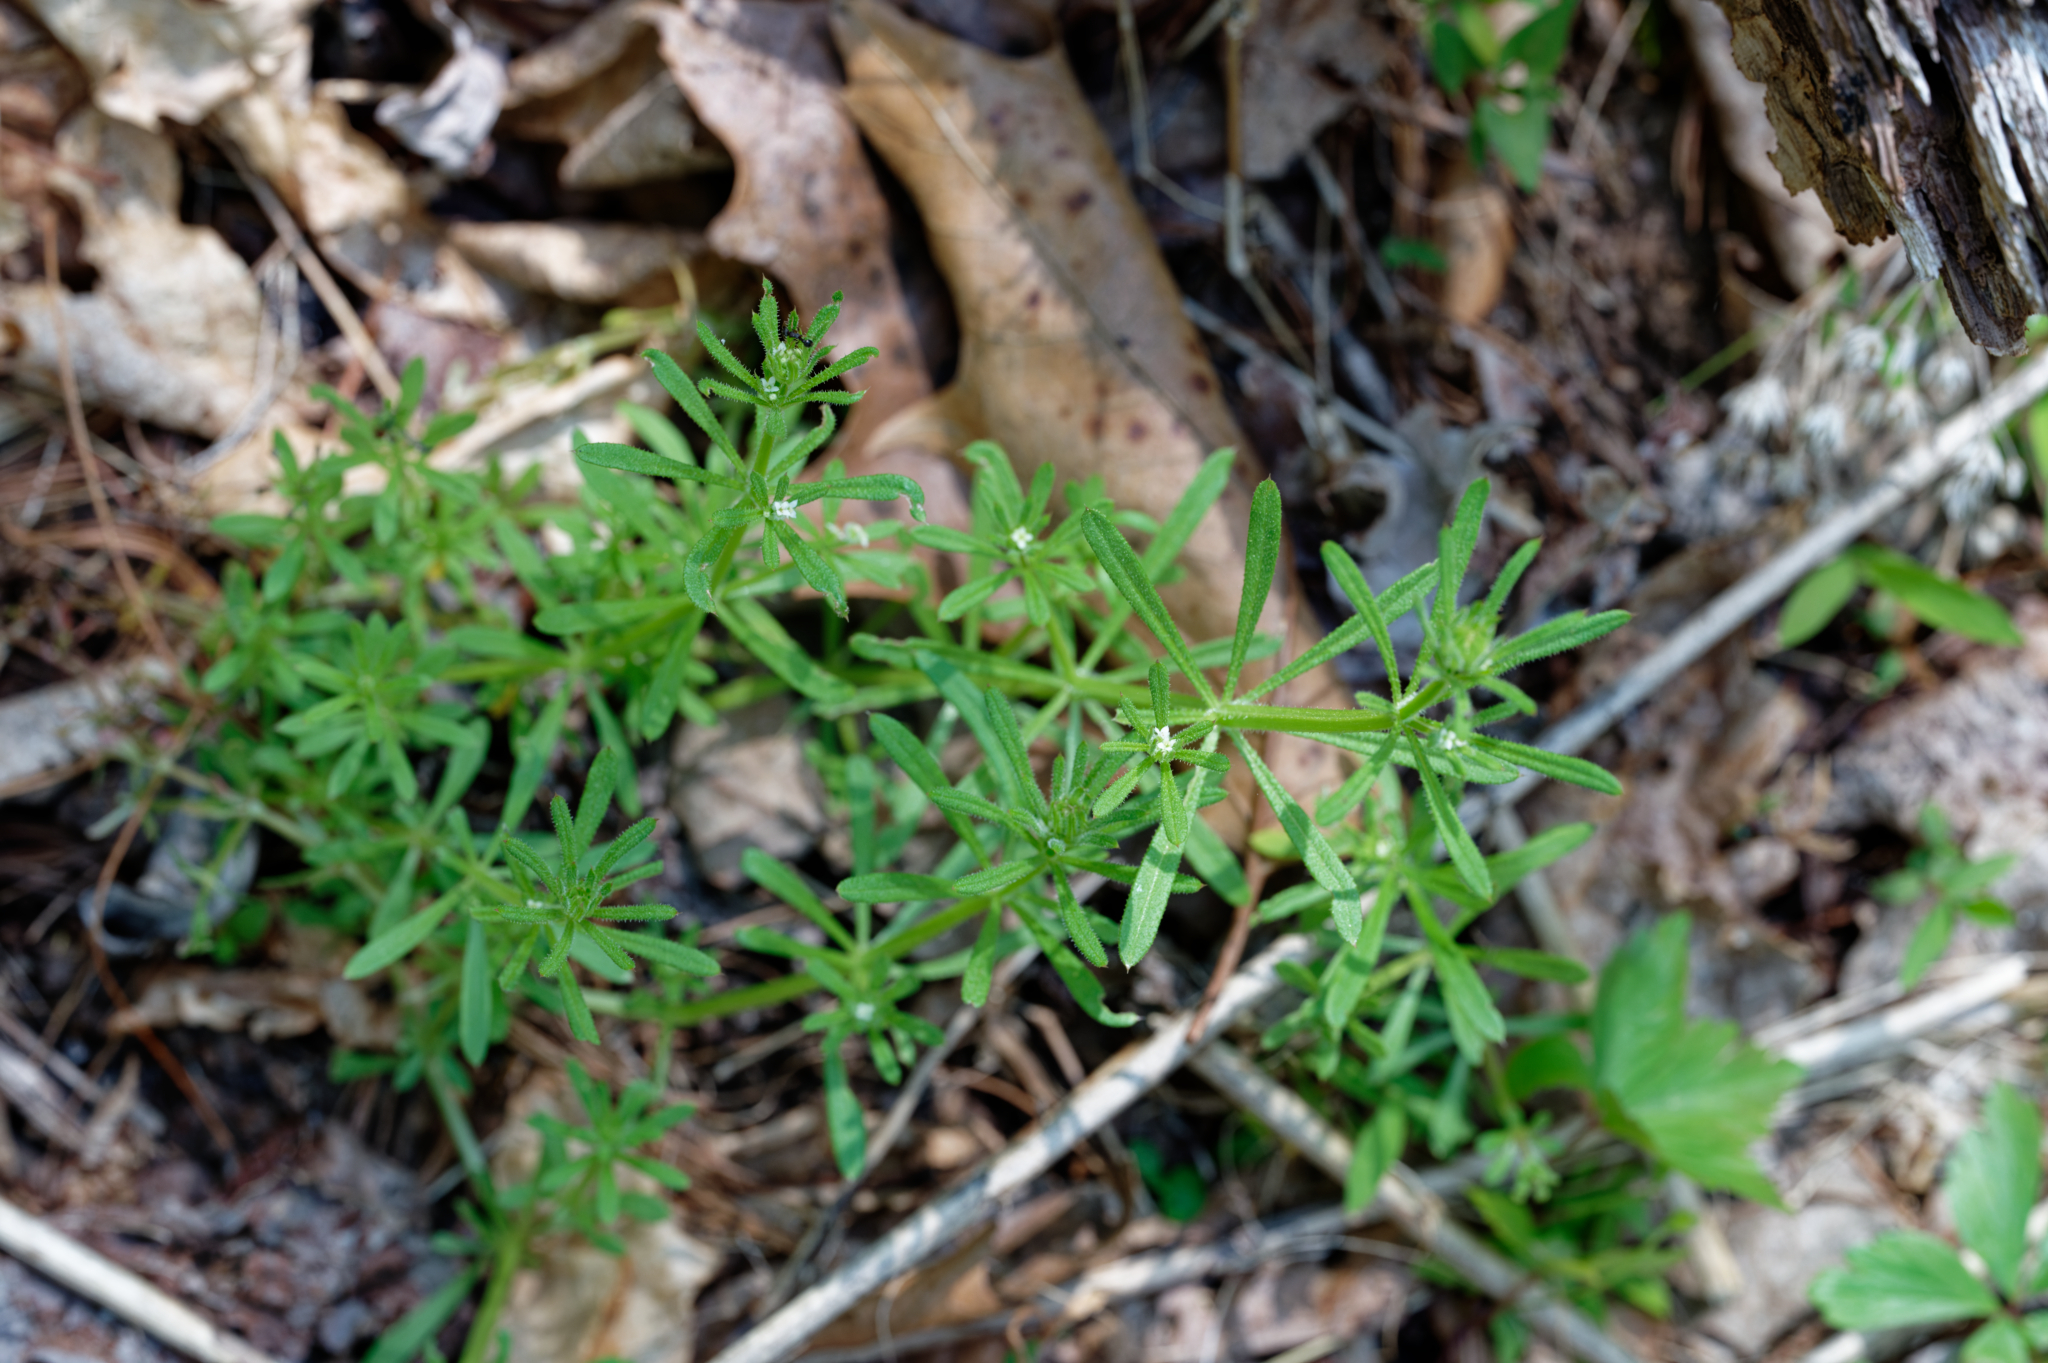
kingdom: Plantae
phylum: Tracheophyta
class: Magnoliopsida
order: Gentianales
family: Rubiaceae
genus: Galium
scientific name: Galium aparine
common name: Cleavers
